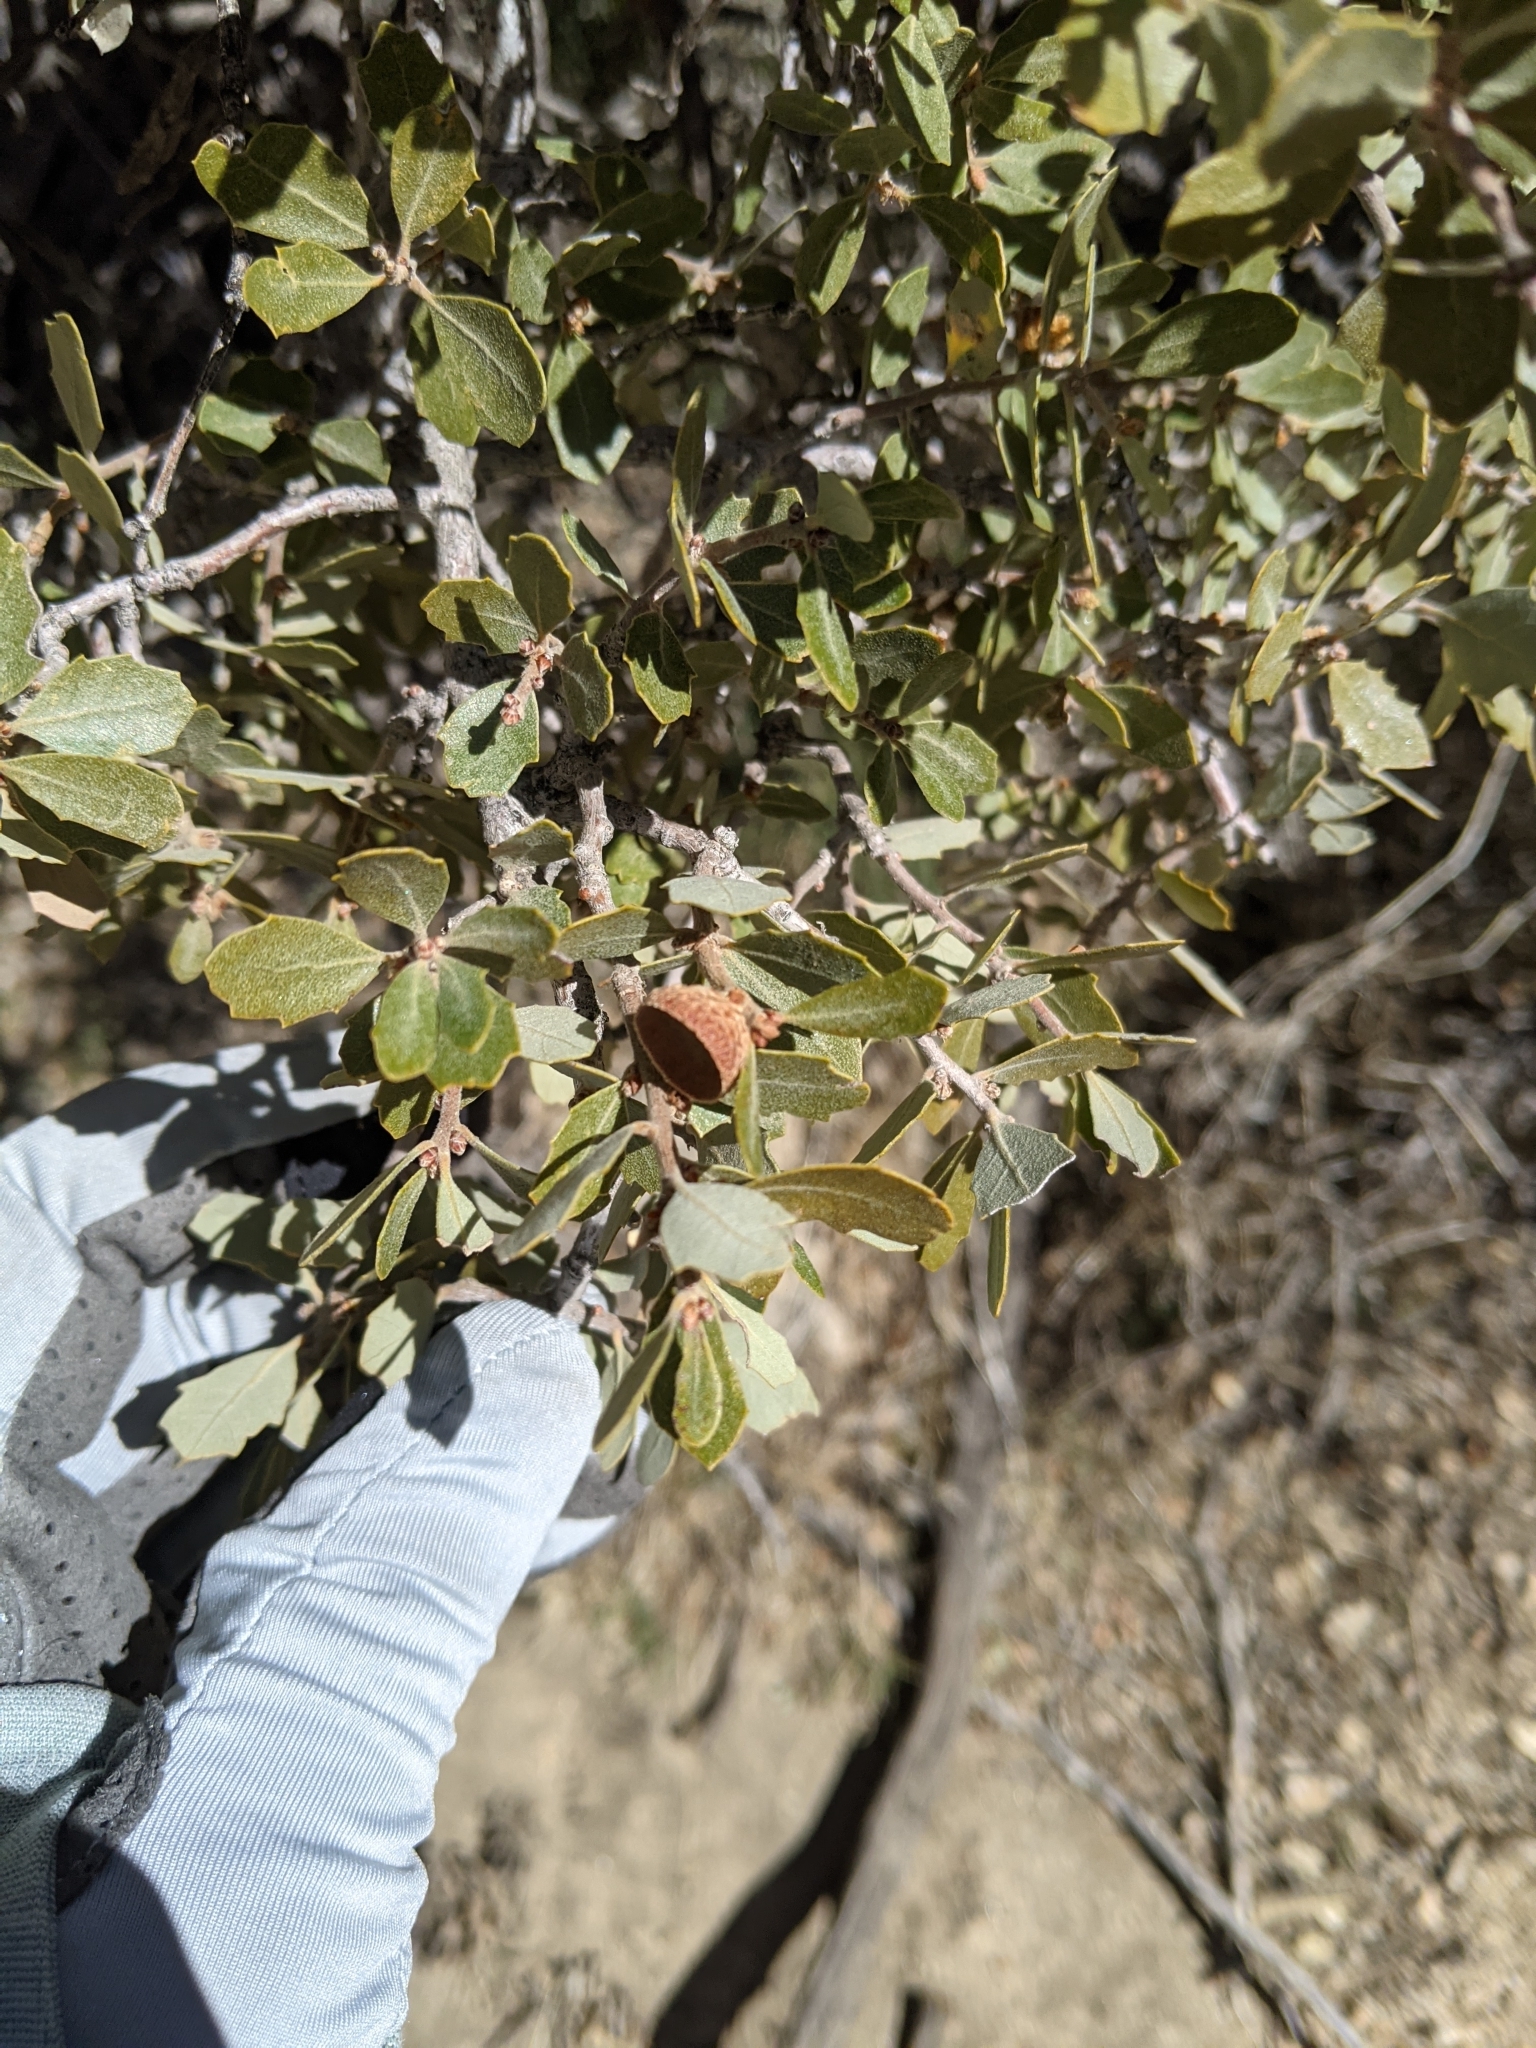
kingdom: Plantae
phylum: Tracheophyta
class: Magnoliopsida
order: Fagales
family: Fagaceae
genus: Quercus
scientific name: Quercus cornelius-mulleri
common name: Muller oak
